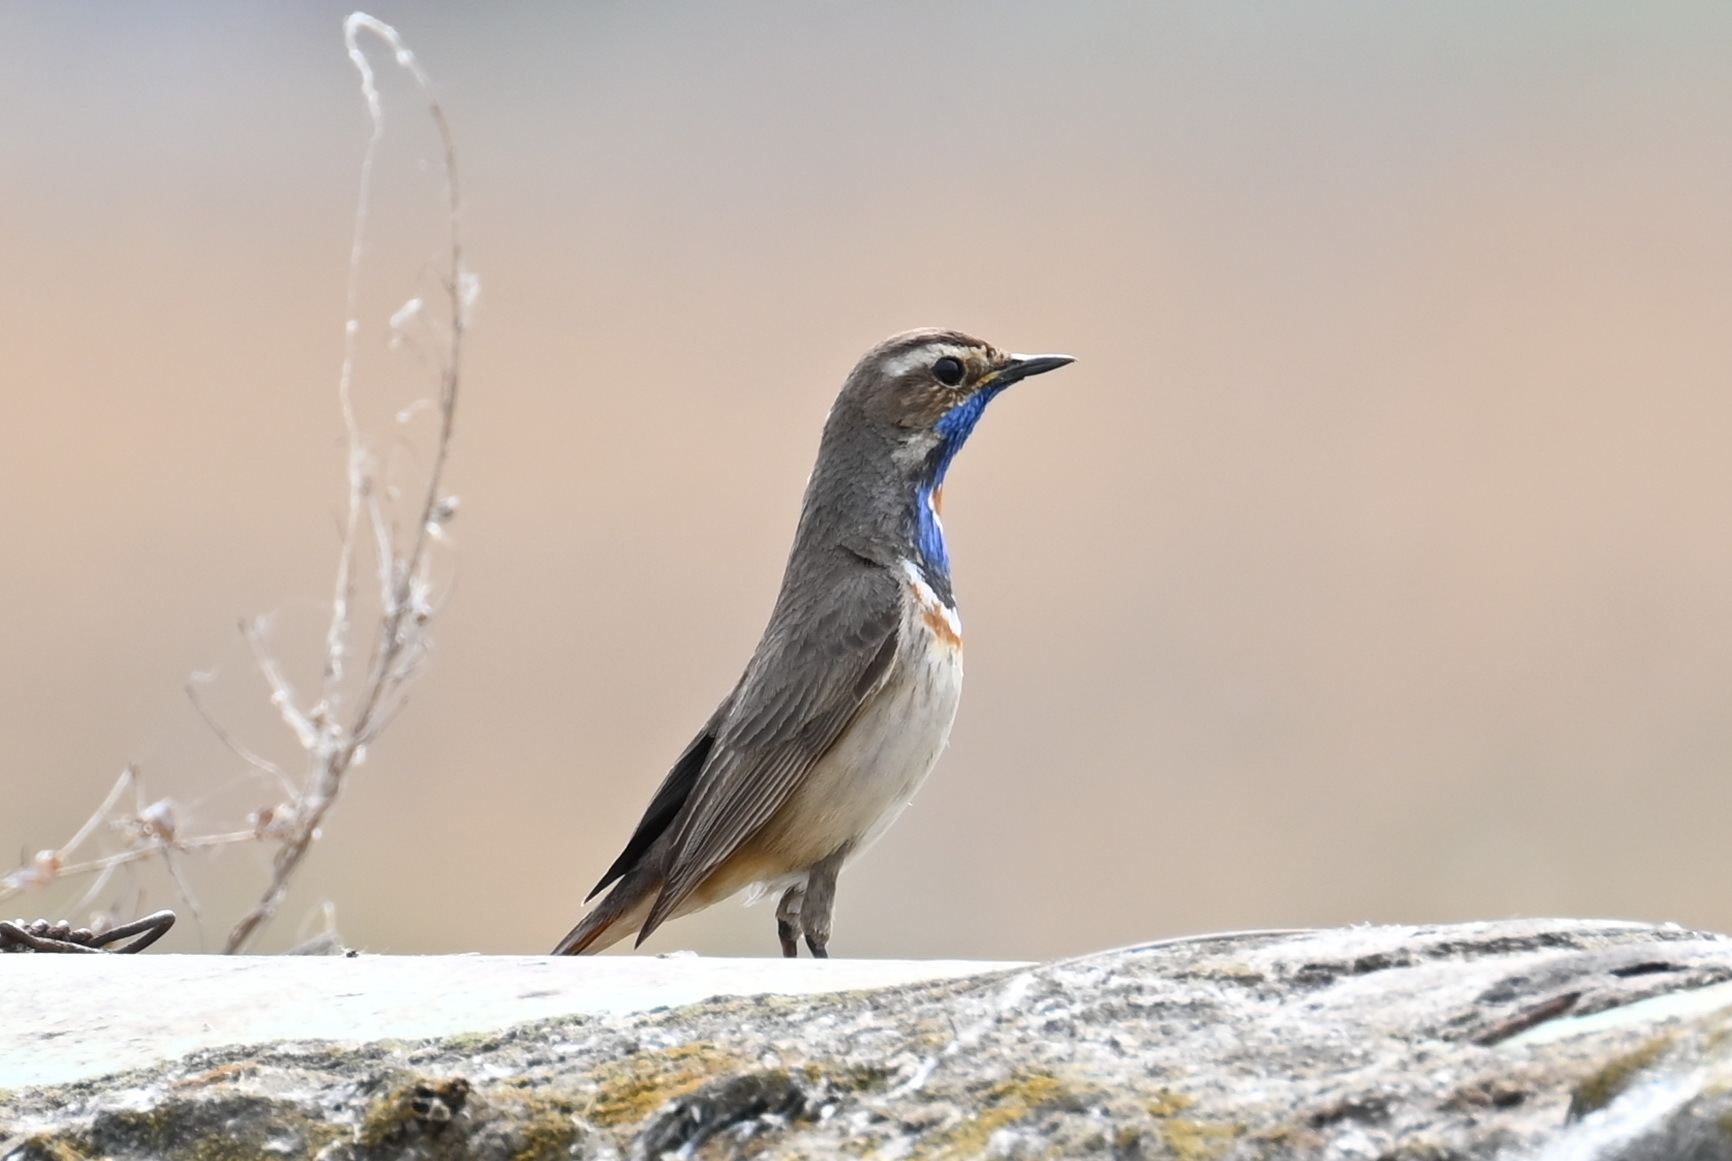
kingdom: Animalia
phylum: Chordata
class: Aves
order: Passeriformes
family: Muscicapidae
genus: Luscinia
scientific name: Luscinia svecica
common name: Bluethroat
